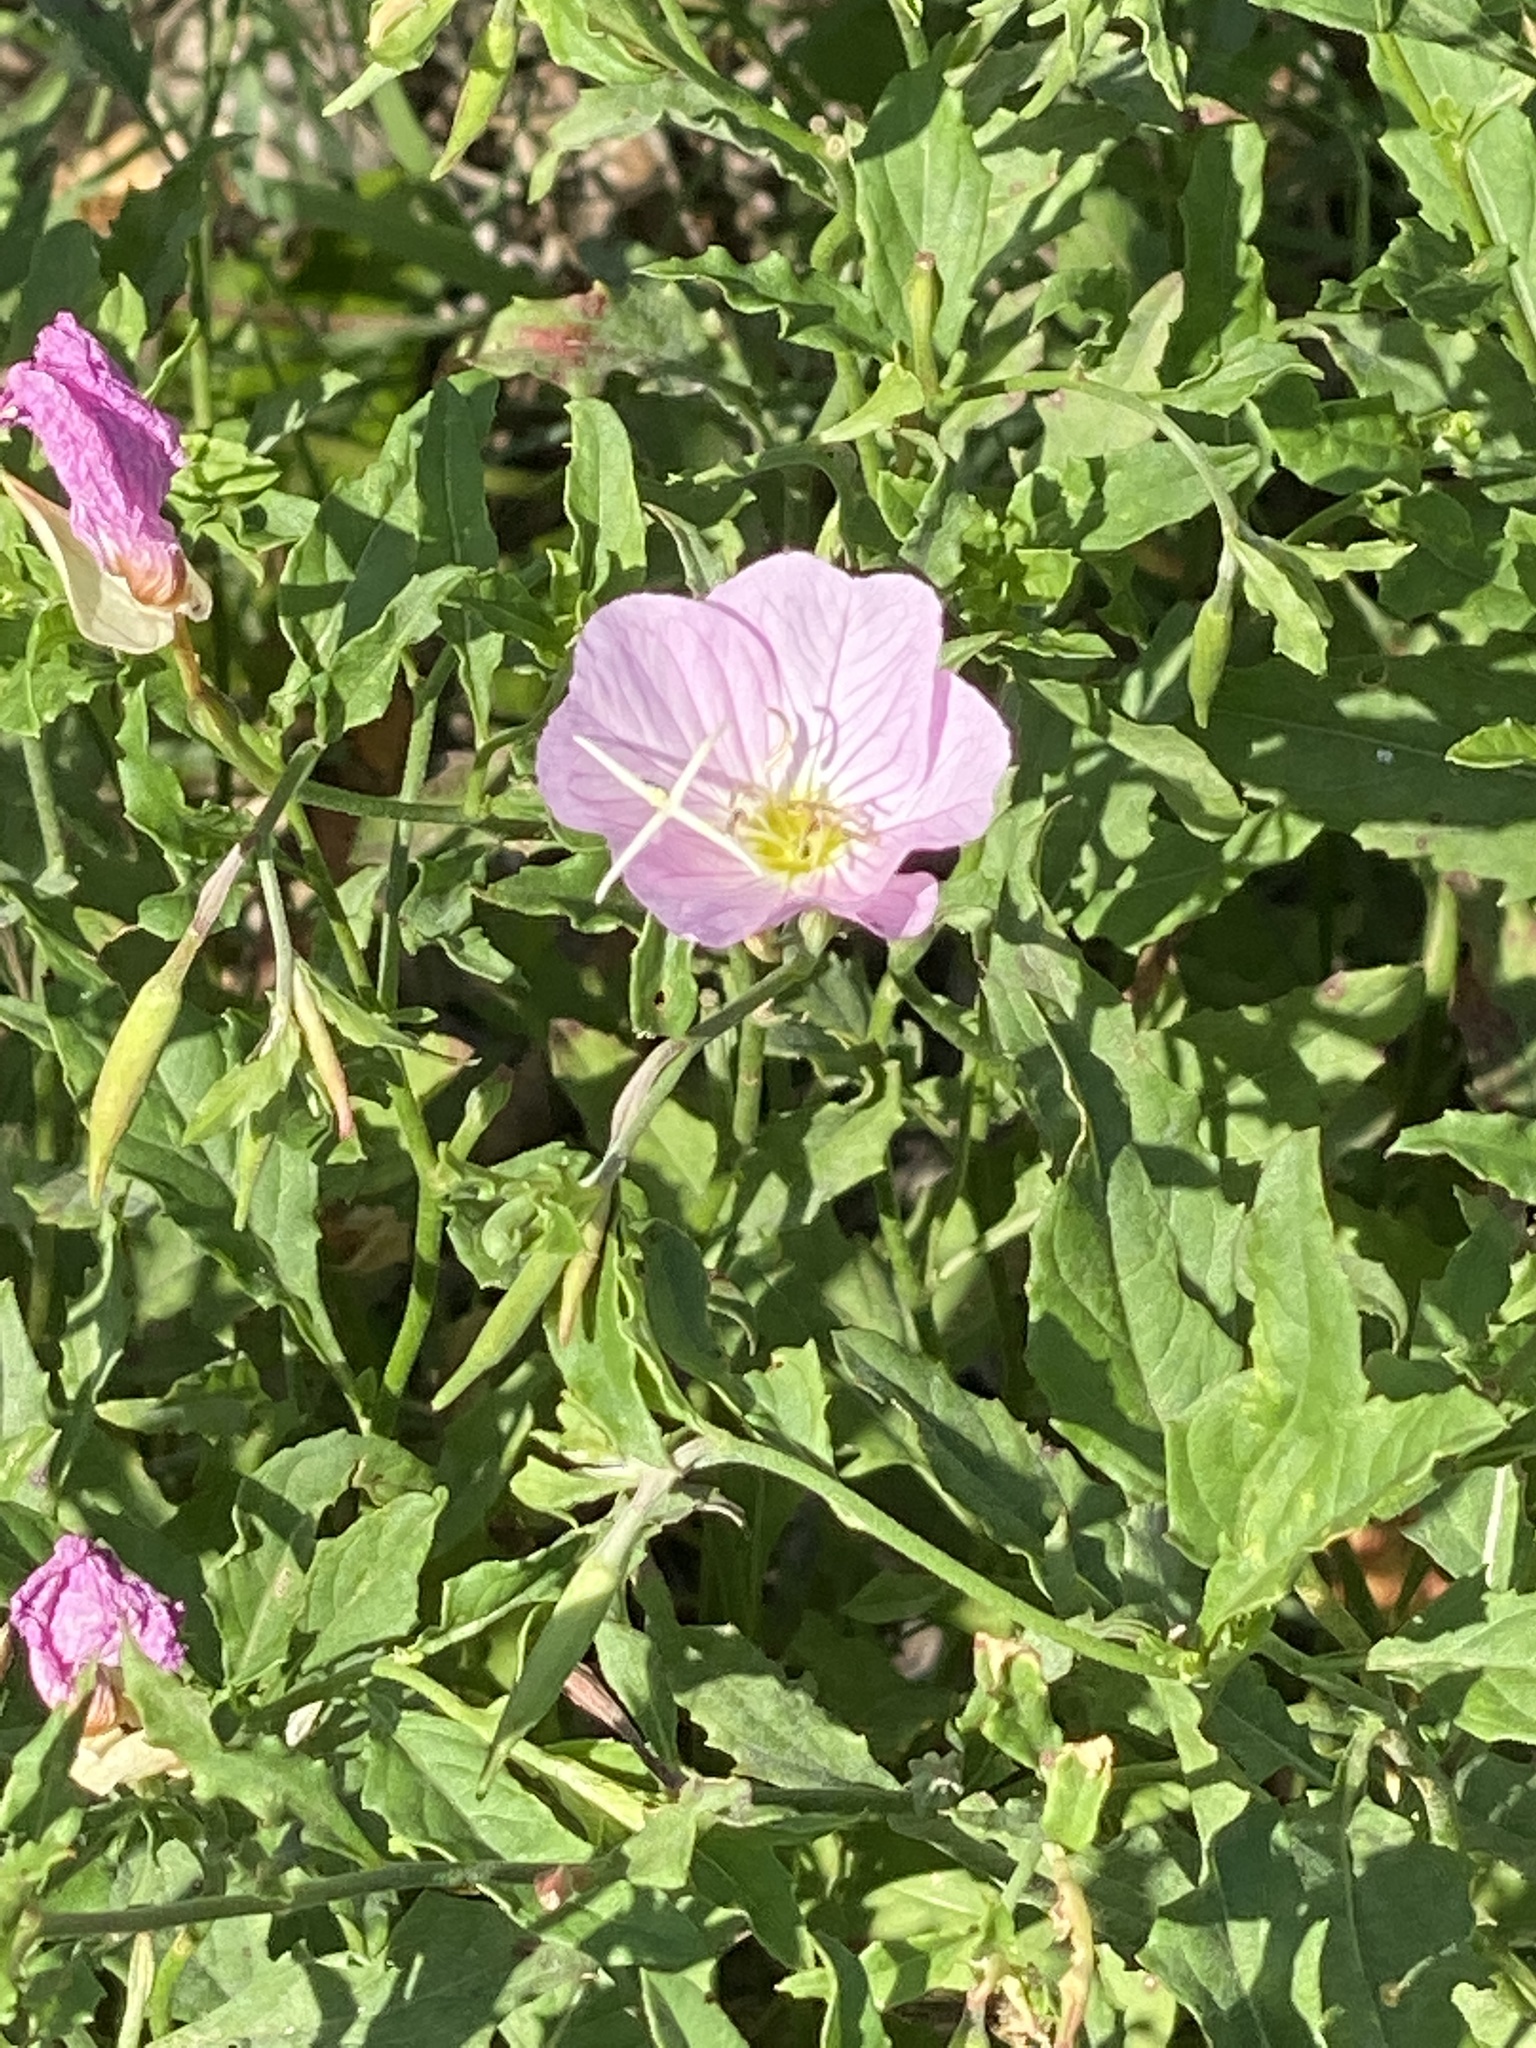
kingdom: Plantae
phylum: Tracheophyta
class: Magnoliopsida
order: Myrtales
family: Onagraceae
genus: Oenothera
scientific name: Oenothera speciosa
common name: White evening-primrose
